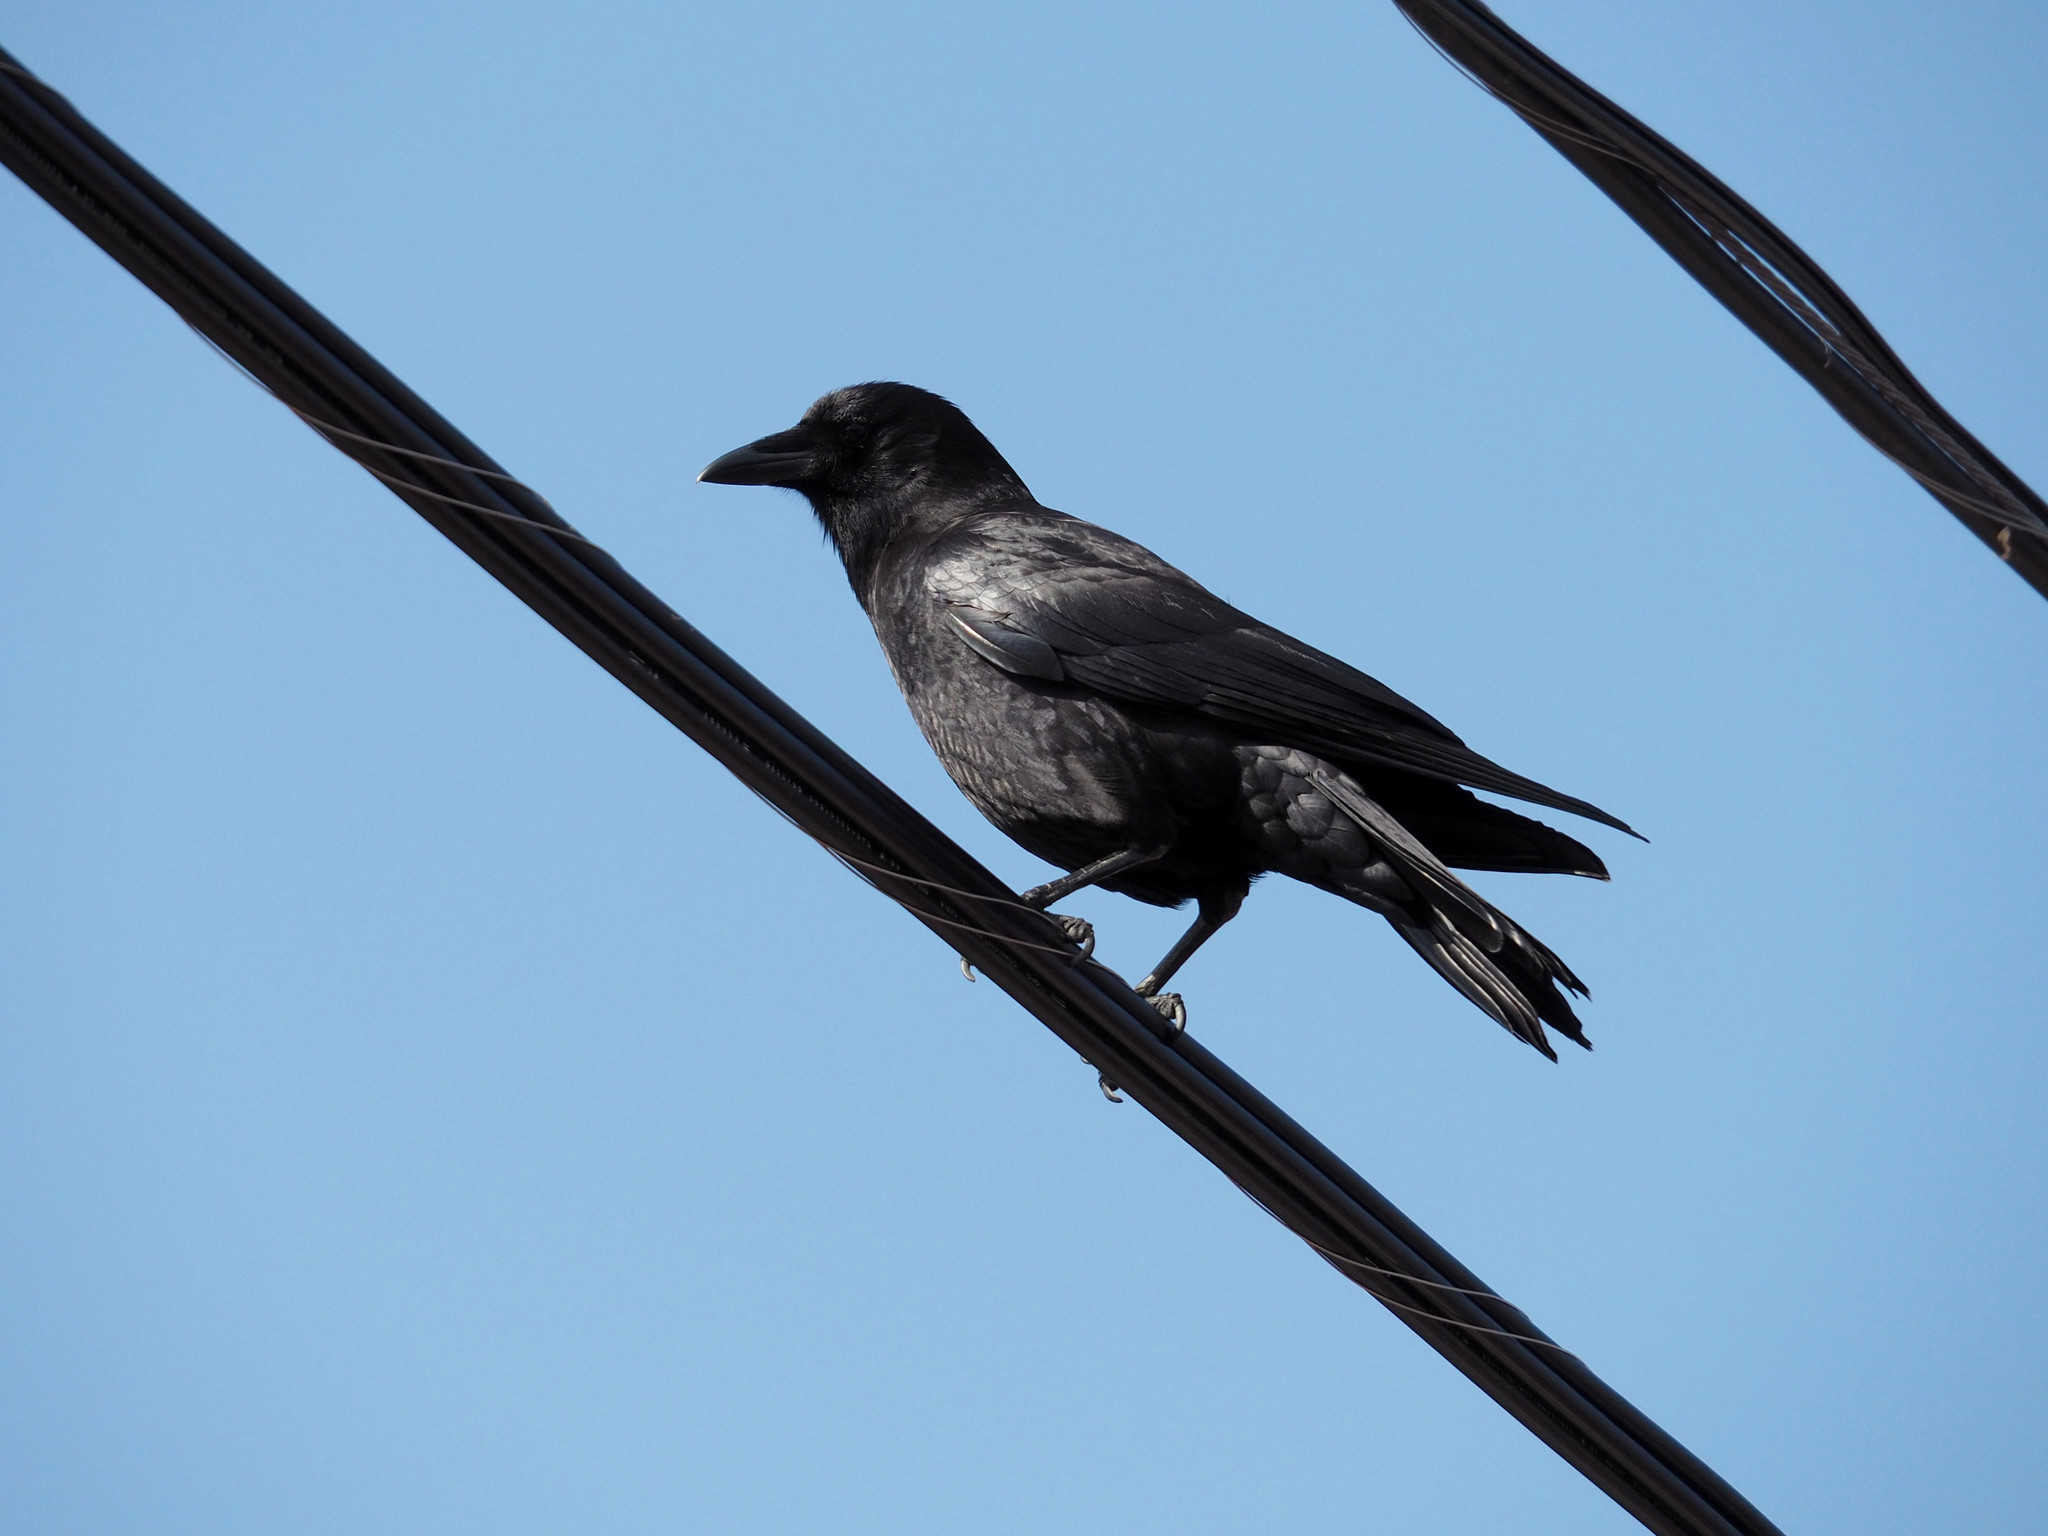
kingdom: Animalia
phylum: Chordata
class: Aves
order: Passeriformes
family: Corvidae
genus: Corvus
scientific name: Corvus brachyrhynchos
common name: American crow
